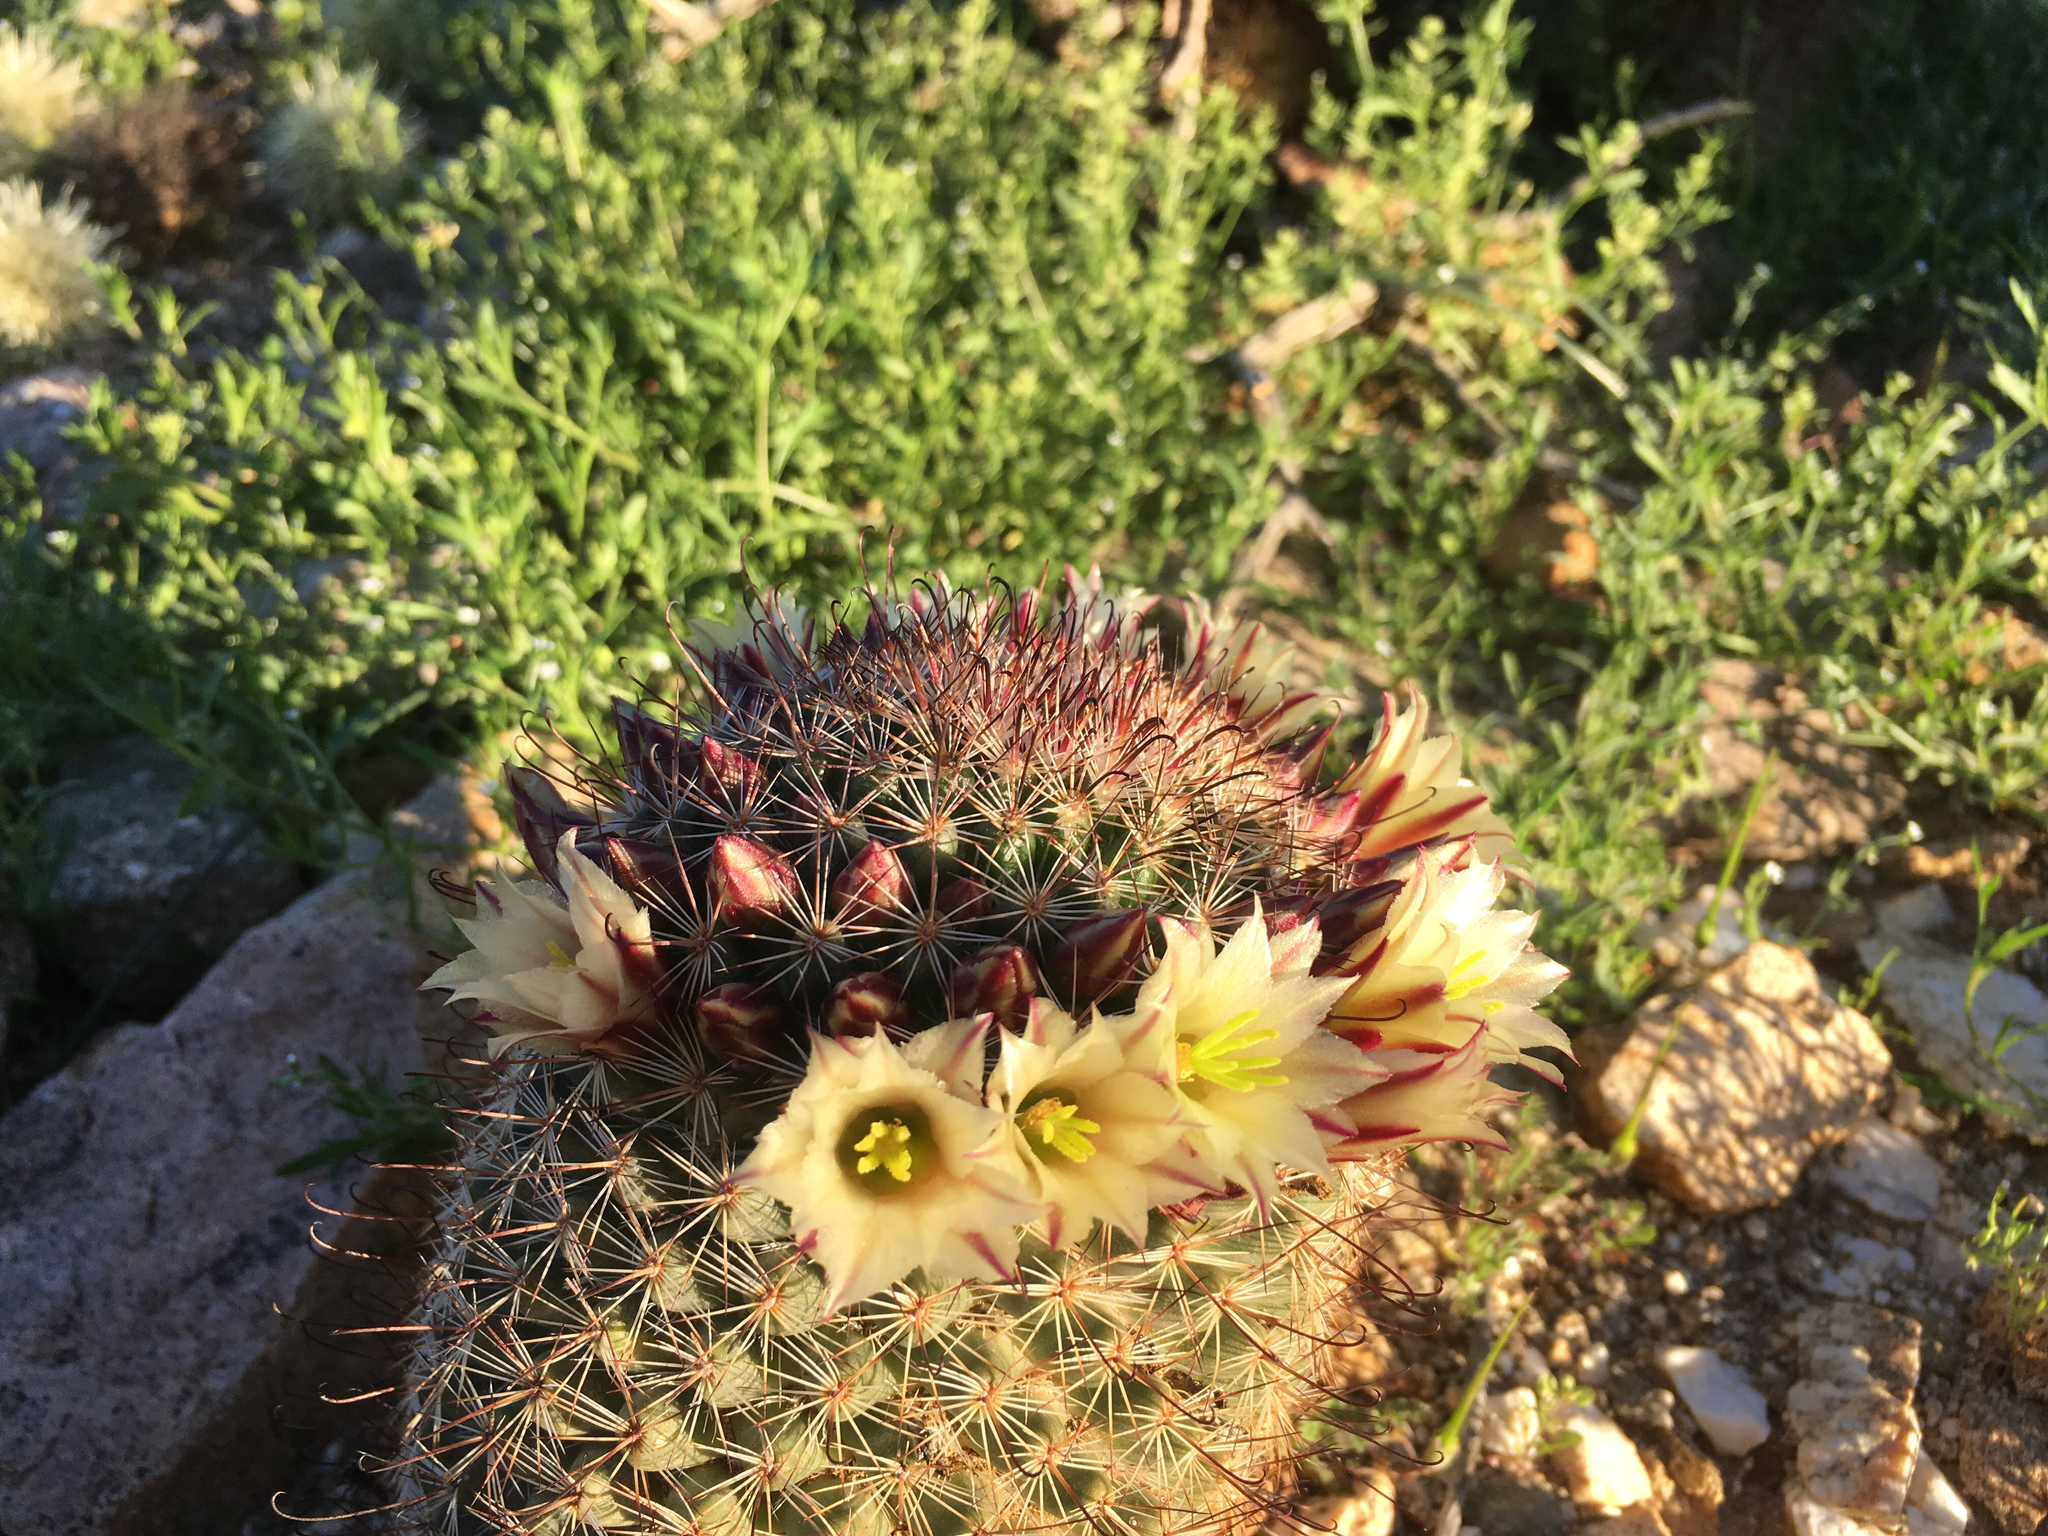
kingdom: Plantae
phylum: Tracheophyta
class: Magnoliopsida
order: Caryophyllales
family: Cactaceae
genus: Cochemiea
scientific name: Cochemiea dioica
